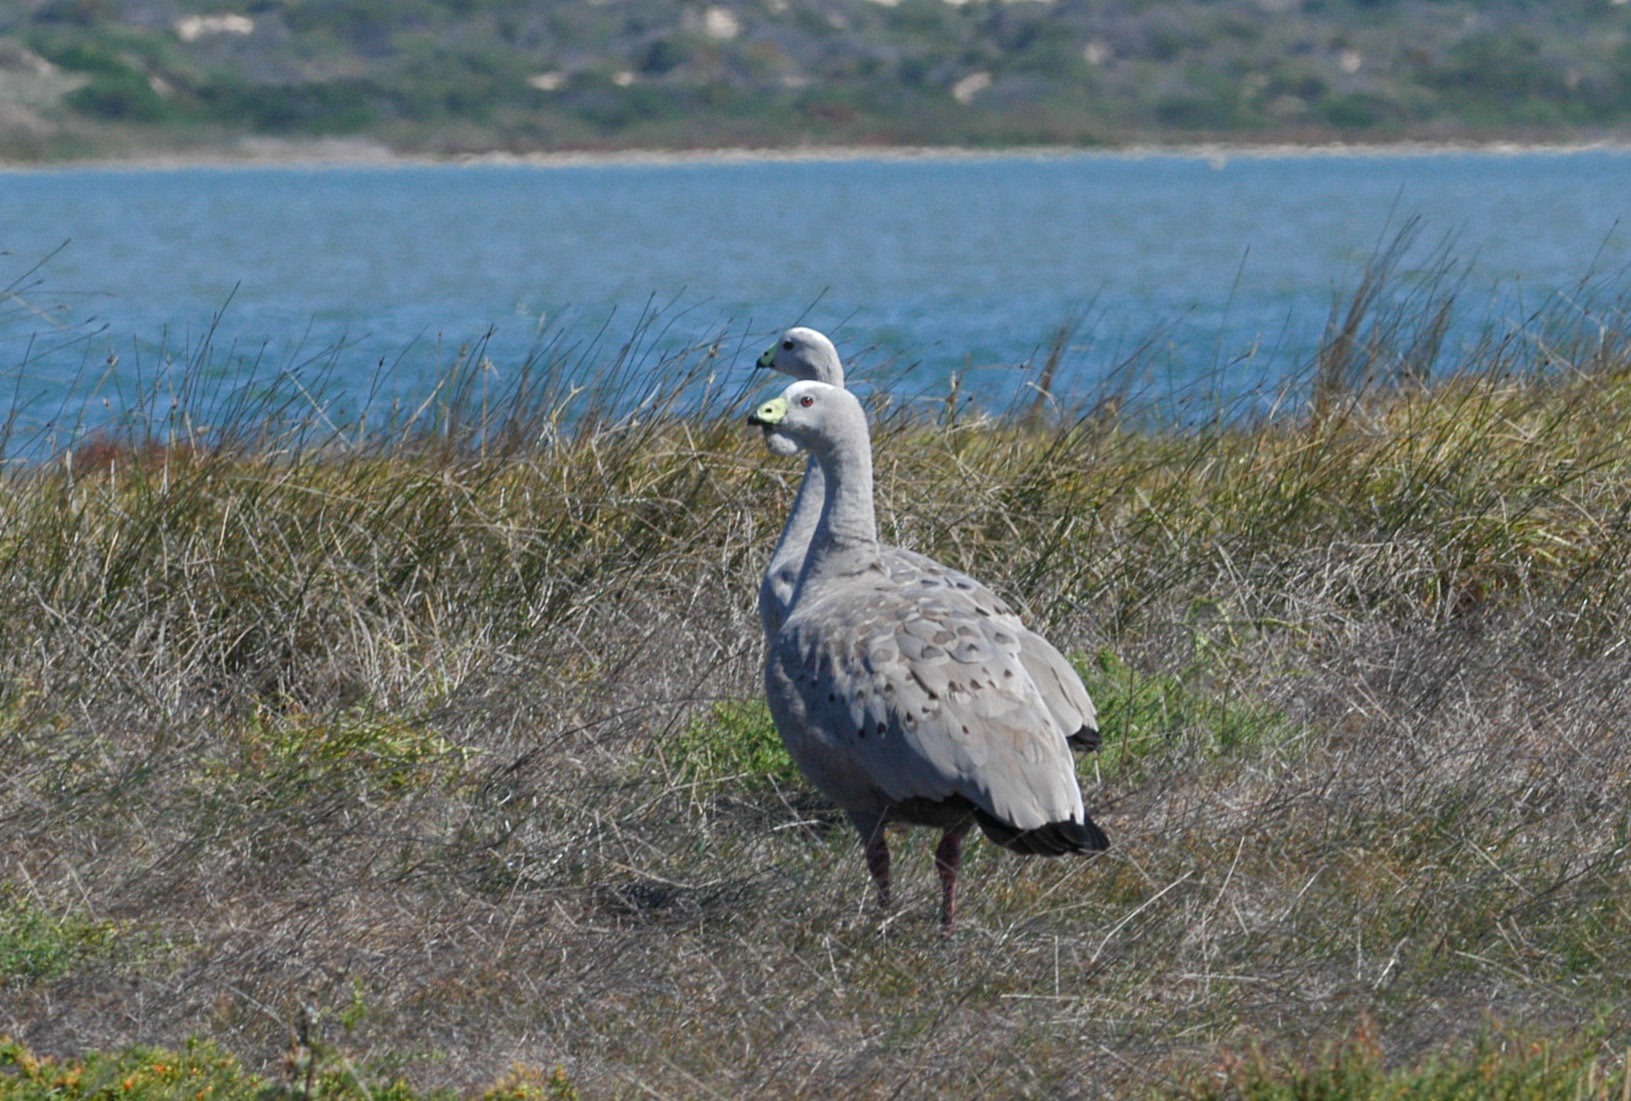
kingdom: Animalia
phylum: Chordata
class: Aves
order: Anseriformes
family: Anatidae
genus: Cereopsis
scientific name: Cereopsis novaehollandiae
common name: Cape barren goose
